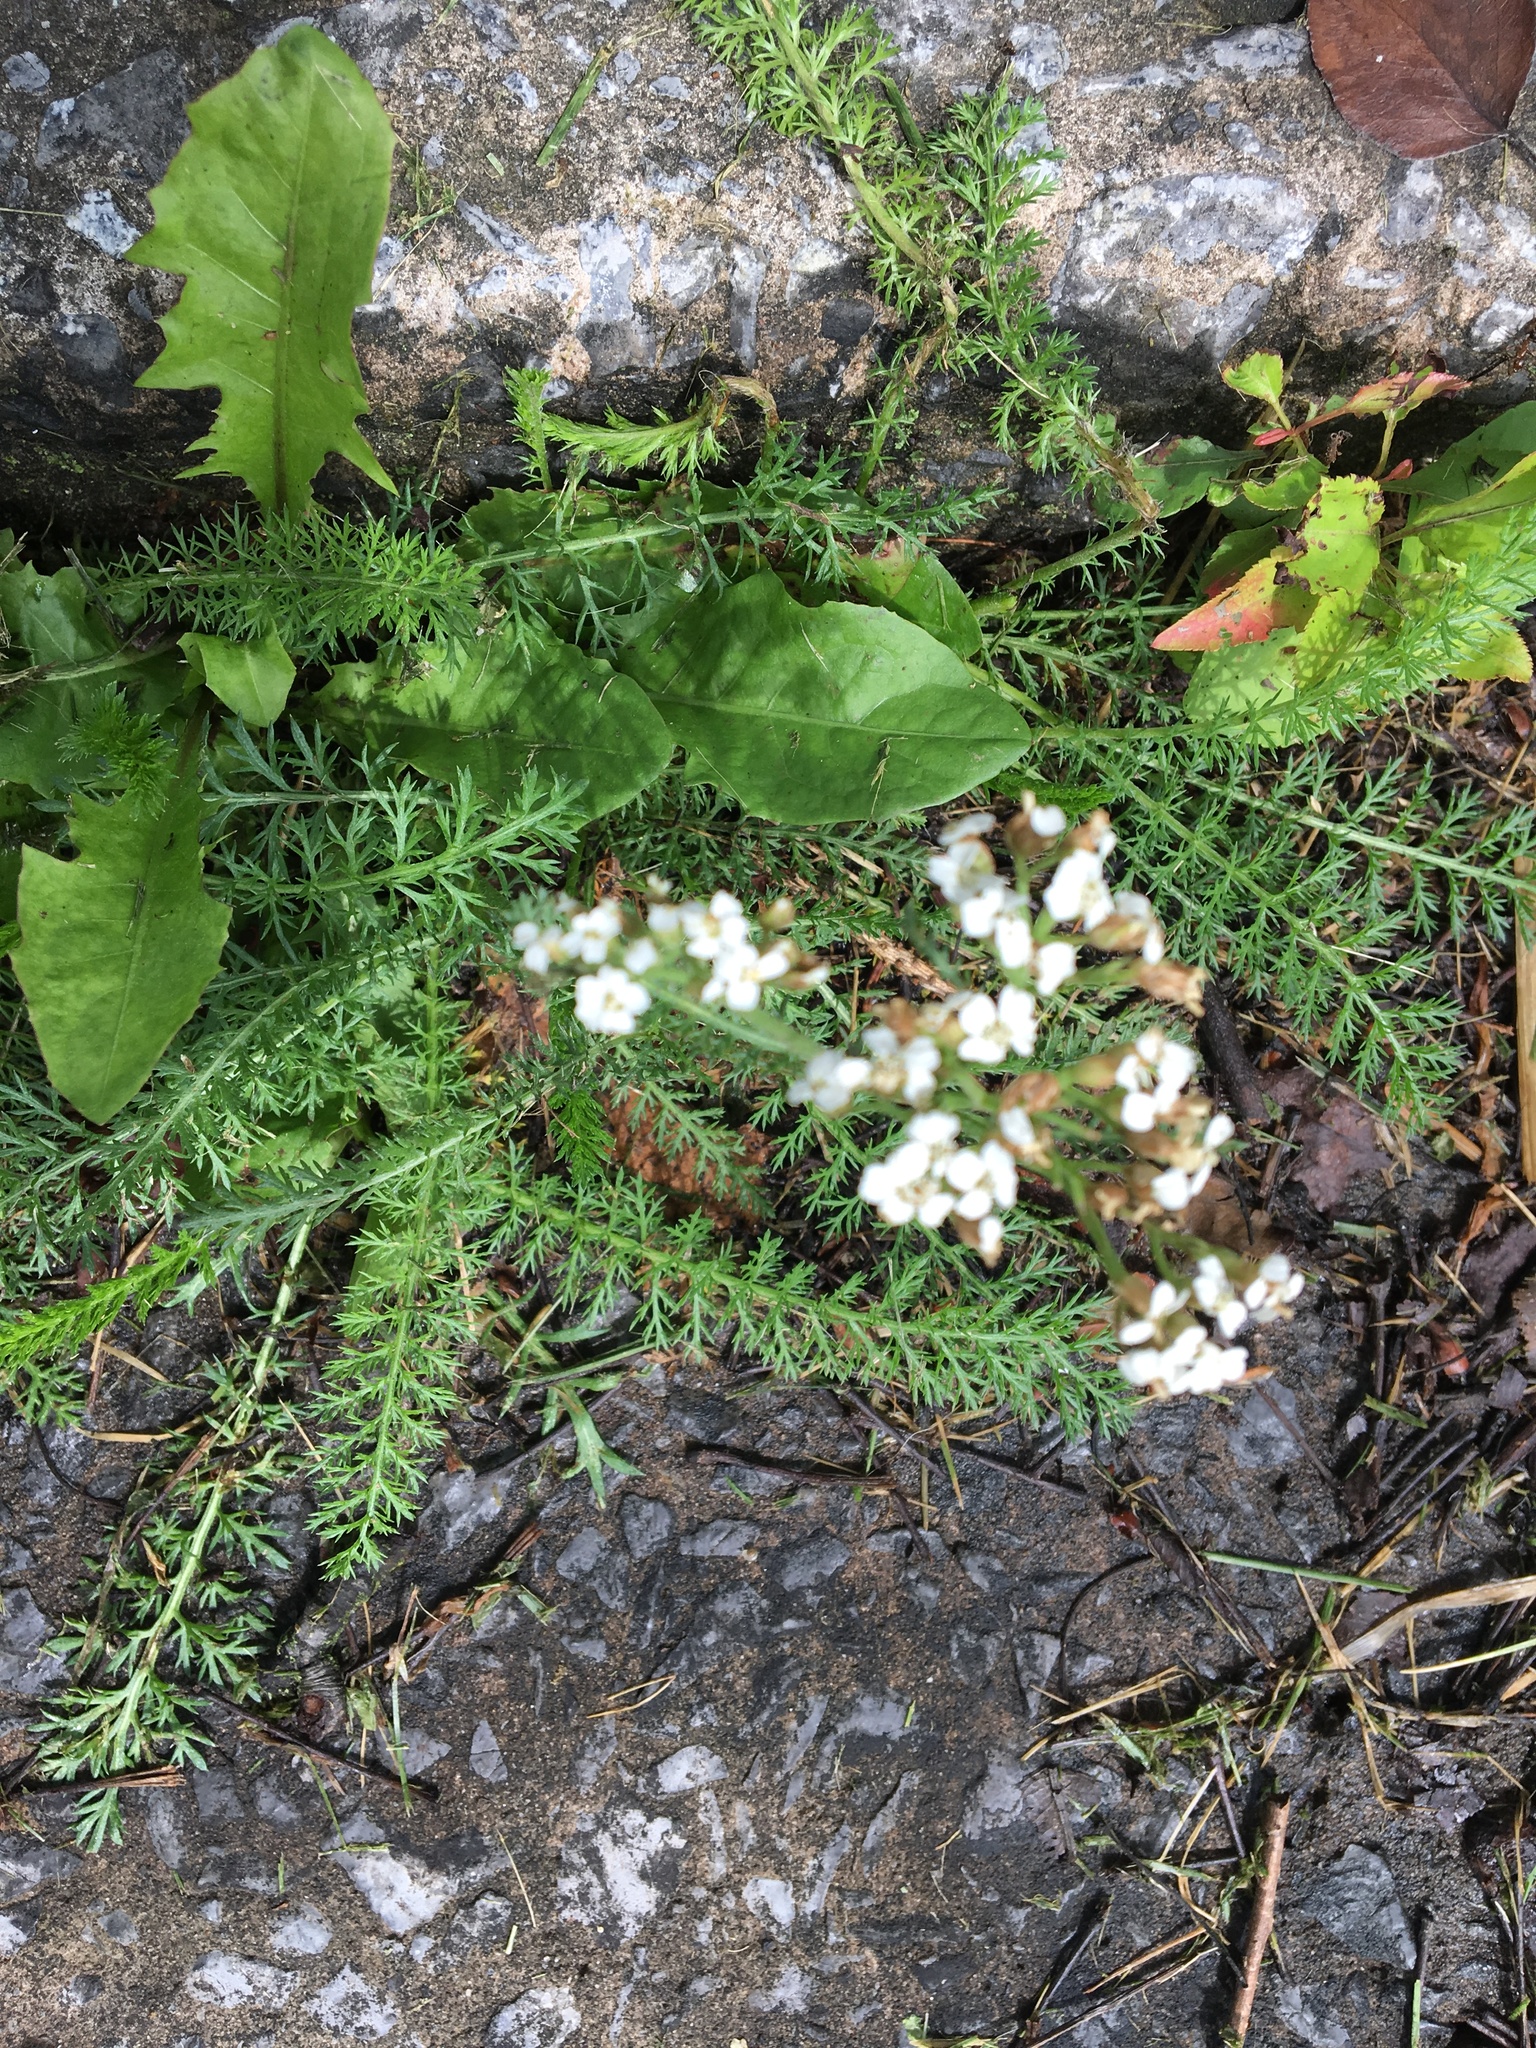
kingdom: Plantae
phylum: Tracheophyta
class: Magnoliopsida
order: Asterales
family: Asteraceae
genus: Achillea
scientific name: Achillea millefolium
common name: Yarrow
